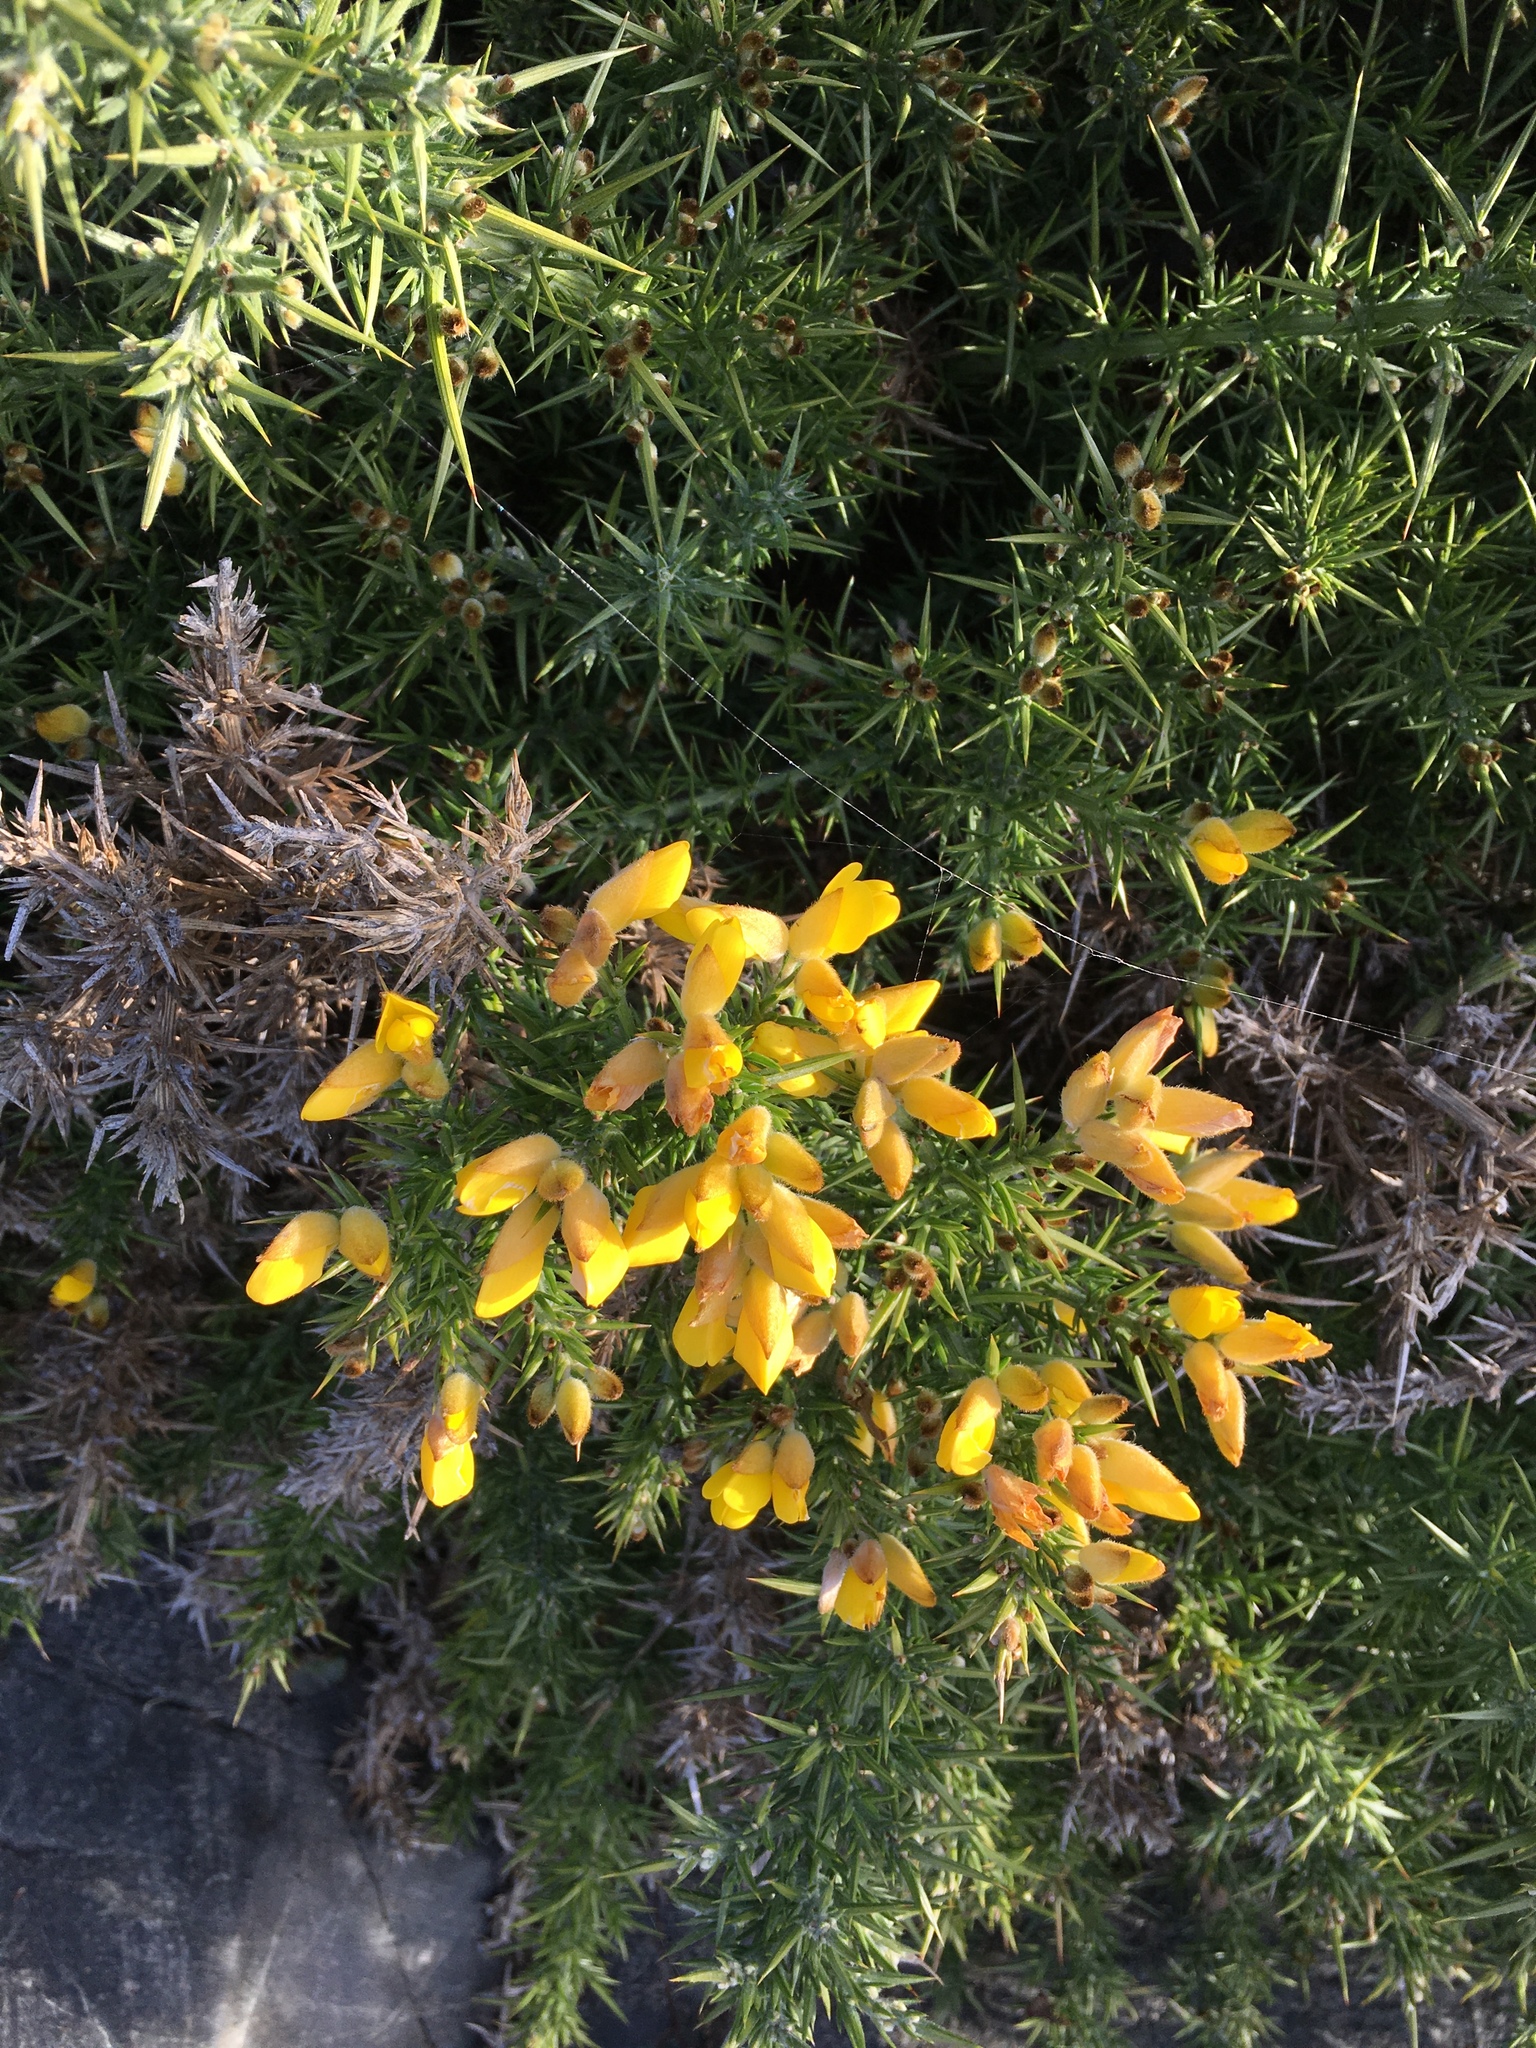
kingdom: Plantae
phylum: Tracheophyta
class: Magnoliopsida
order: Fabales
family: Fabaceae
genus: Ulex
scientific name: Ulex europaeus
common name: Common gorse
